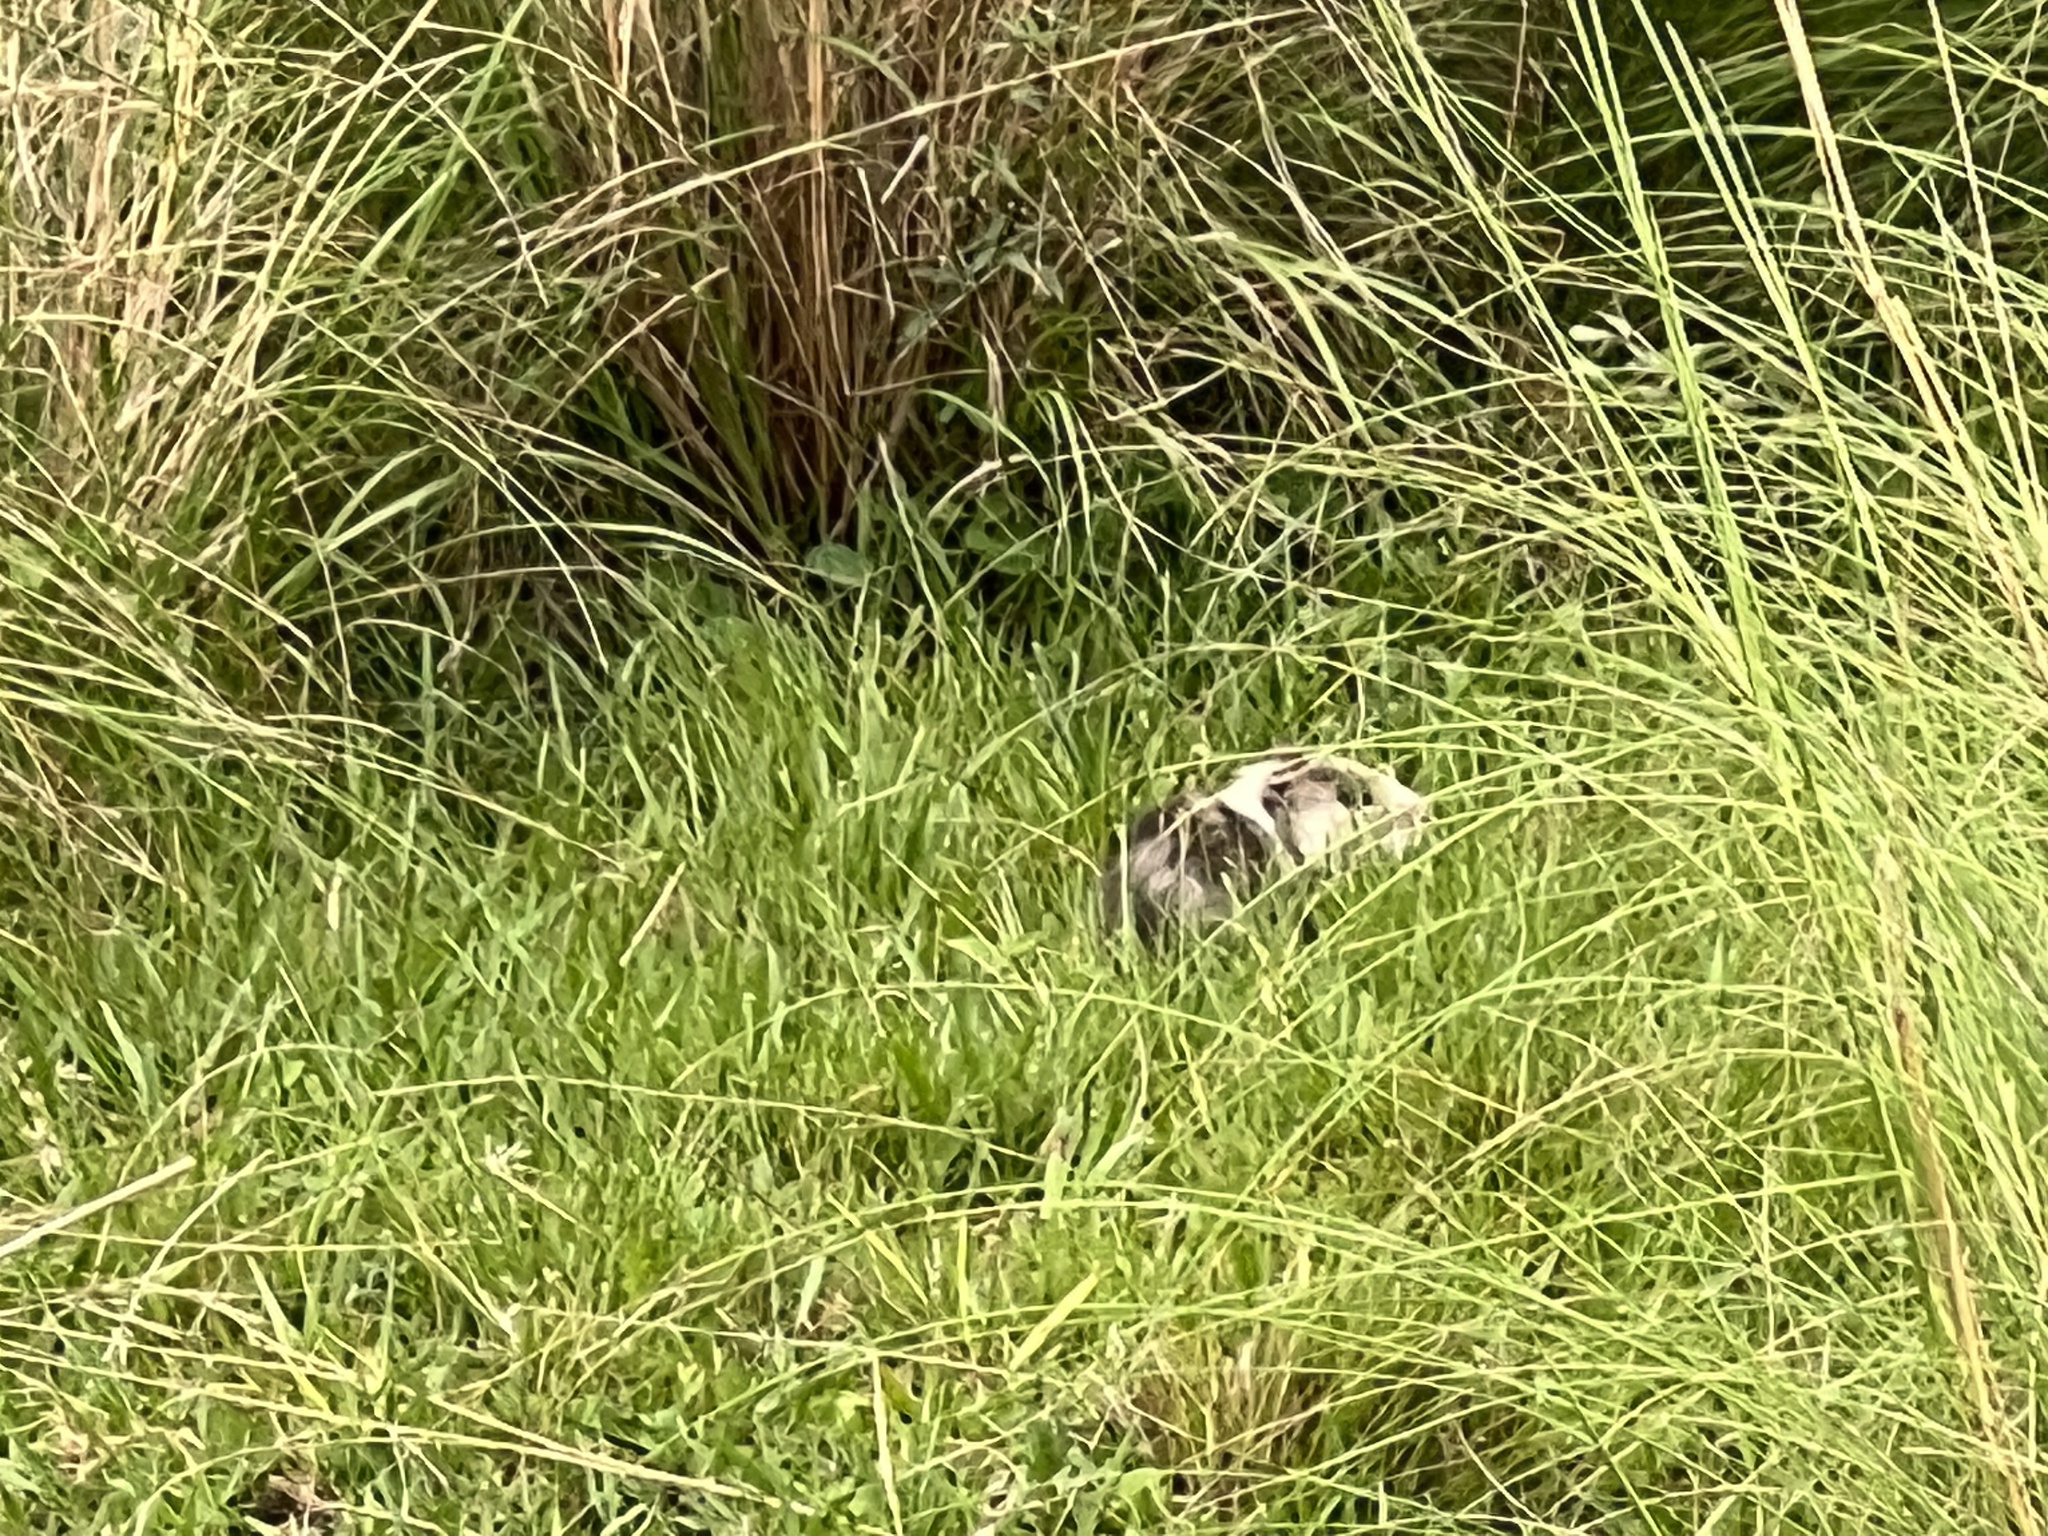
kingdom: Animalia
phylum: Chordata
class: Mammalia
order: Rodentia
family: Caviidae
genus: Cavia
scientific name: Cavia porcellus
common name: Guinea pig
